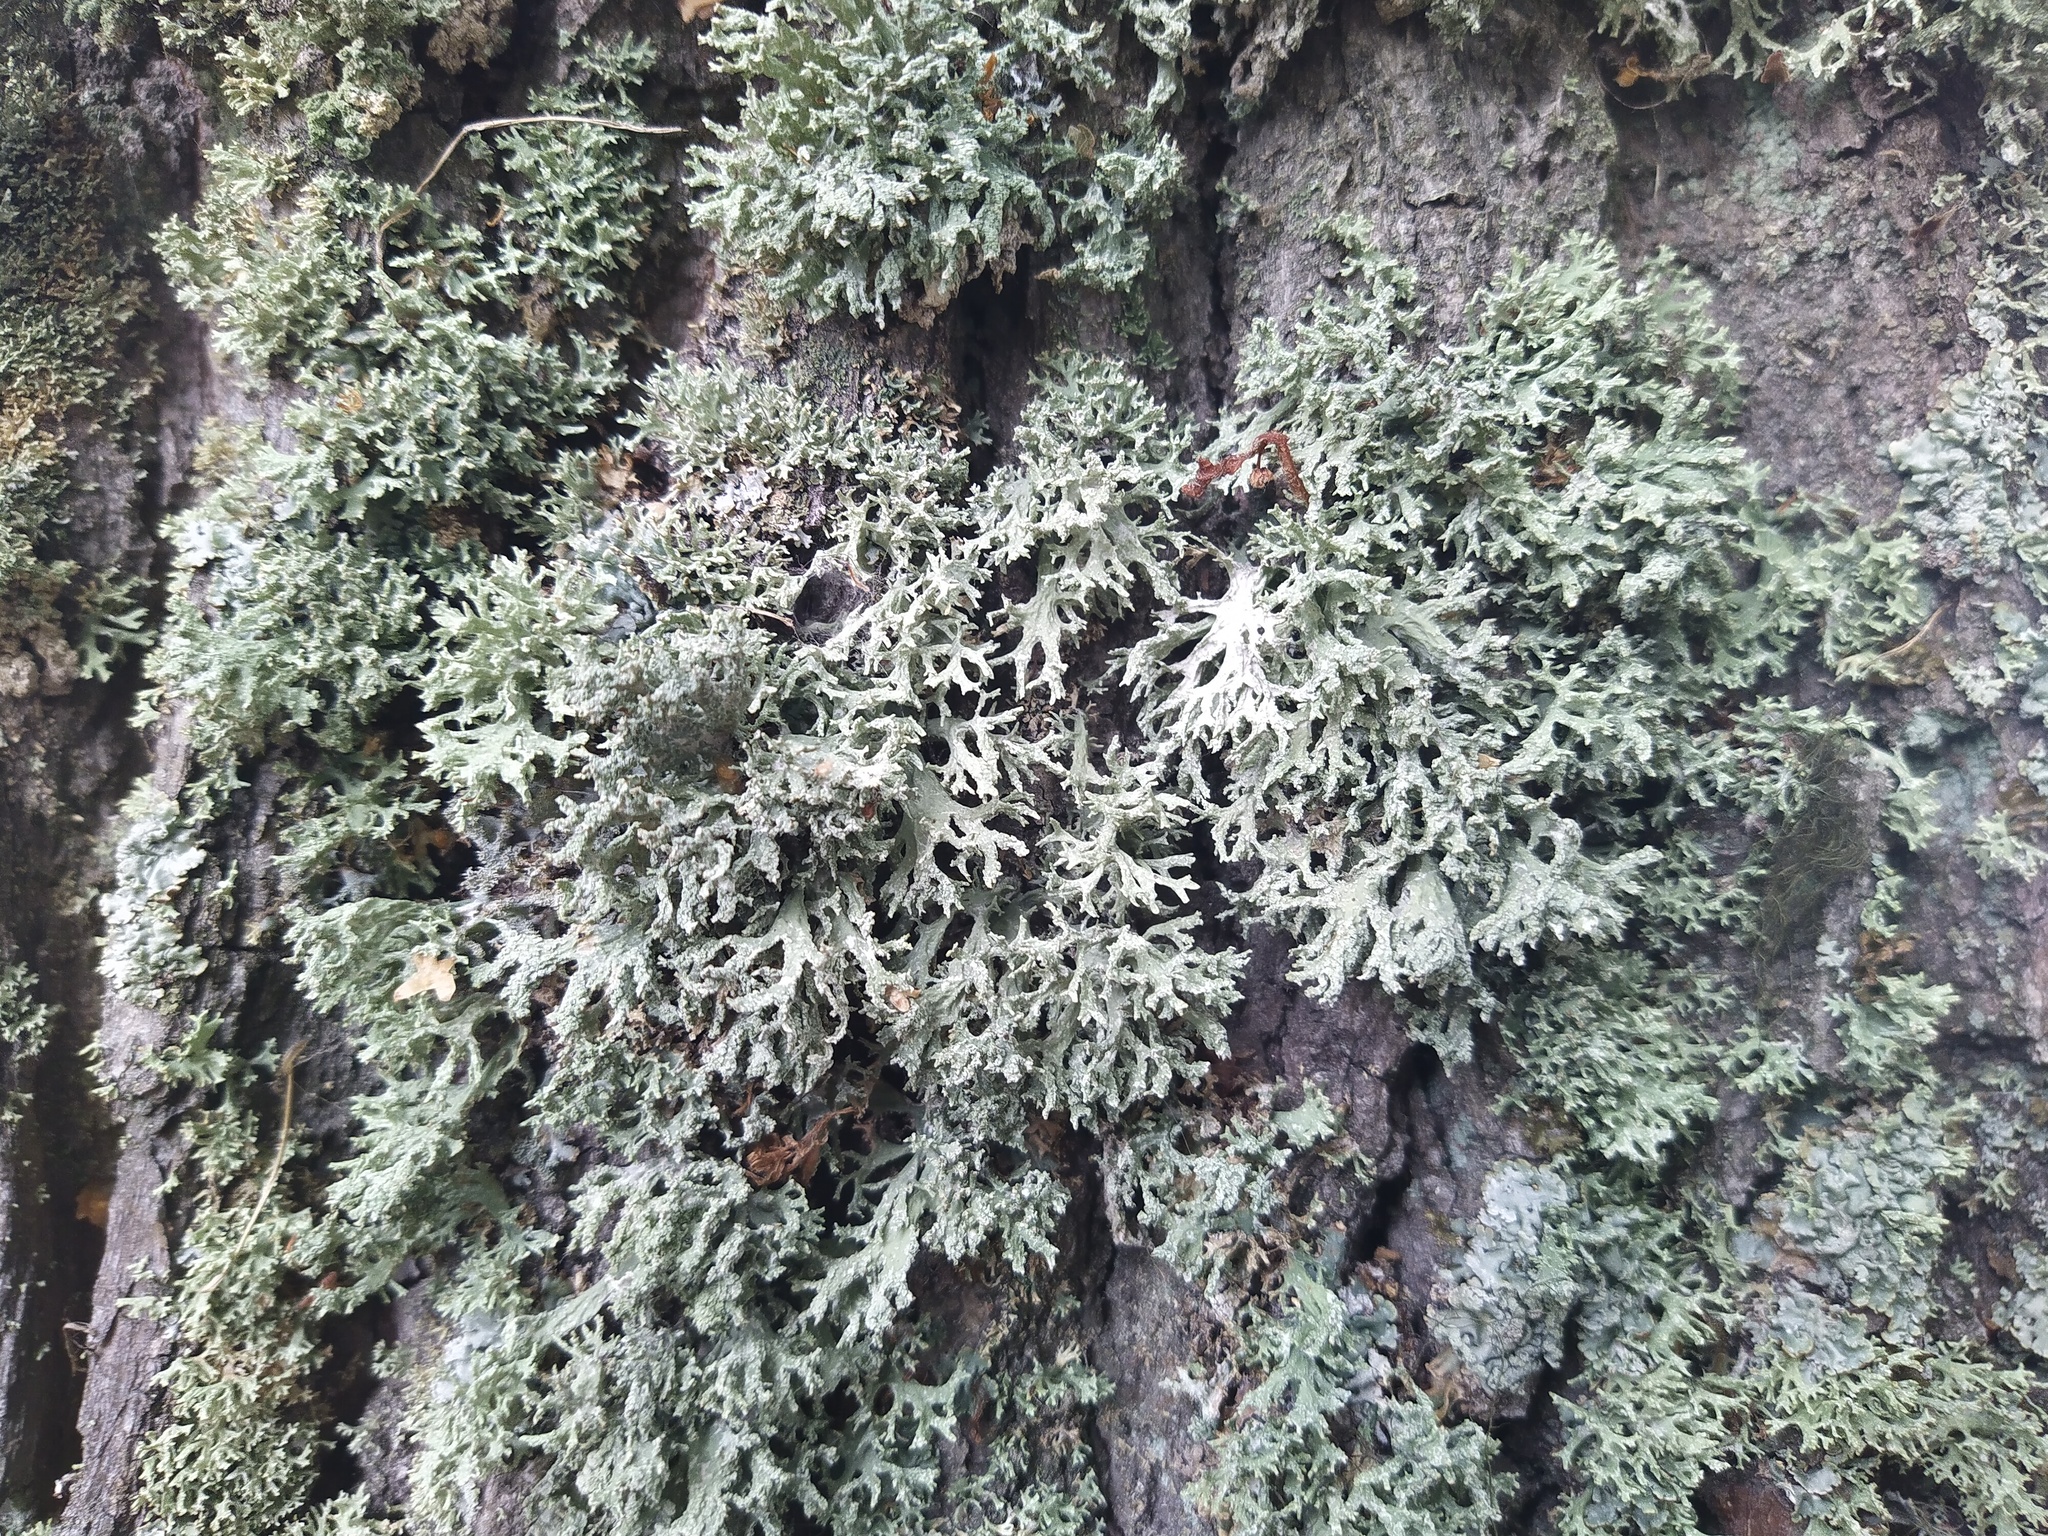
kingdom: Fungi
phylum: Ascomycota
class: Lecanoromycetes
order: Lecanorales
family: Parmeliaceae
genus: Evernia
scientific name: Evernia prunastri
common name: Oak moss
